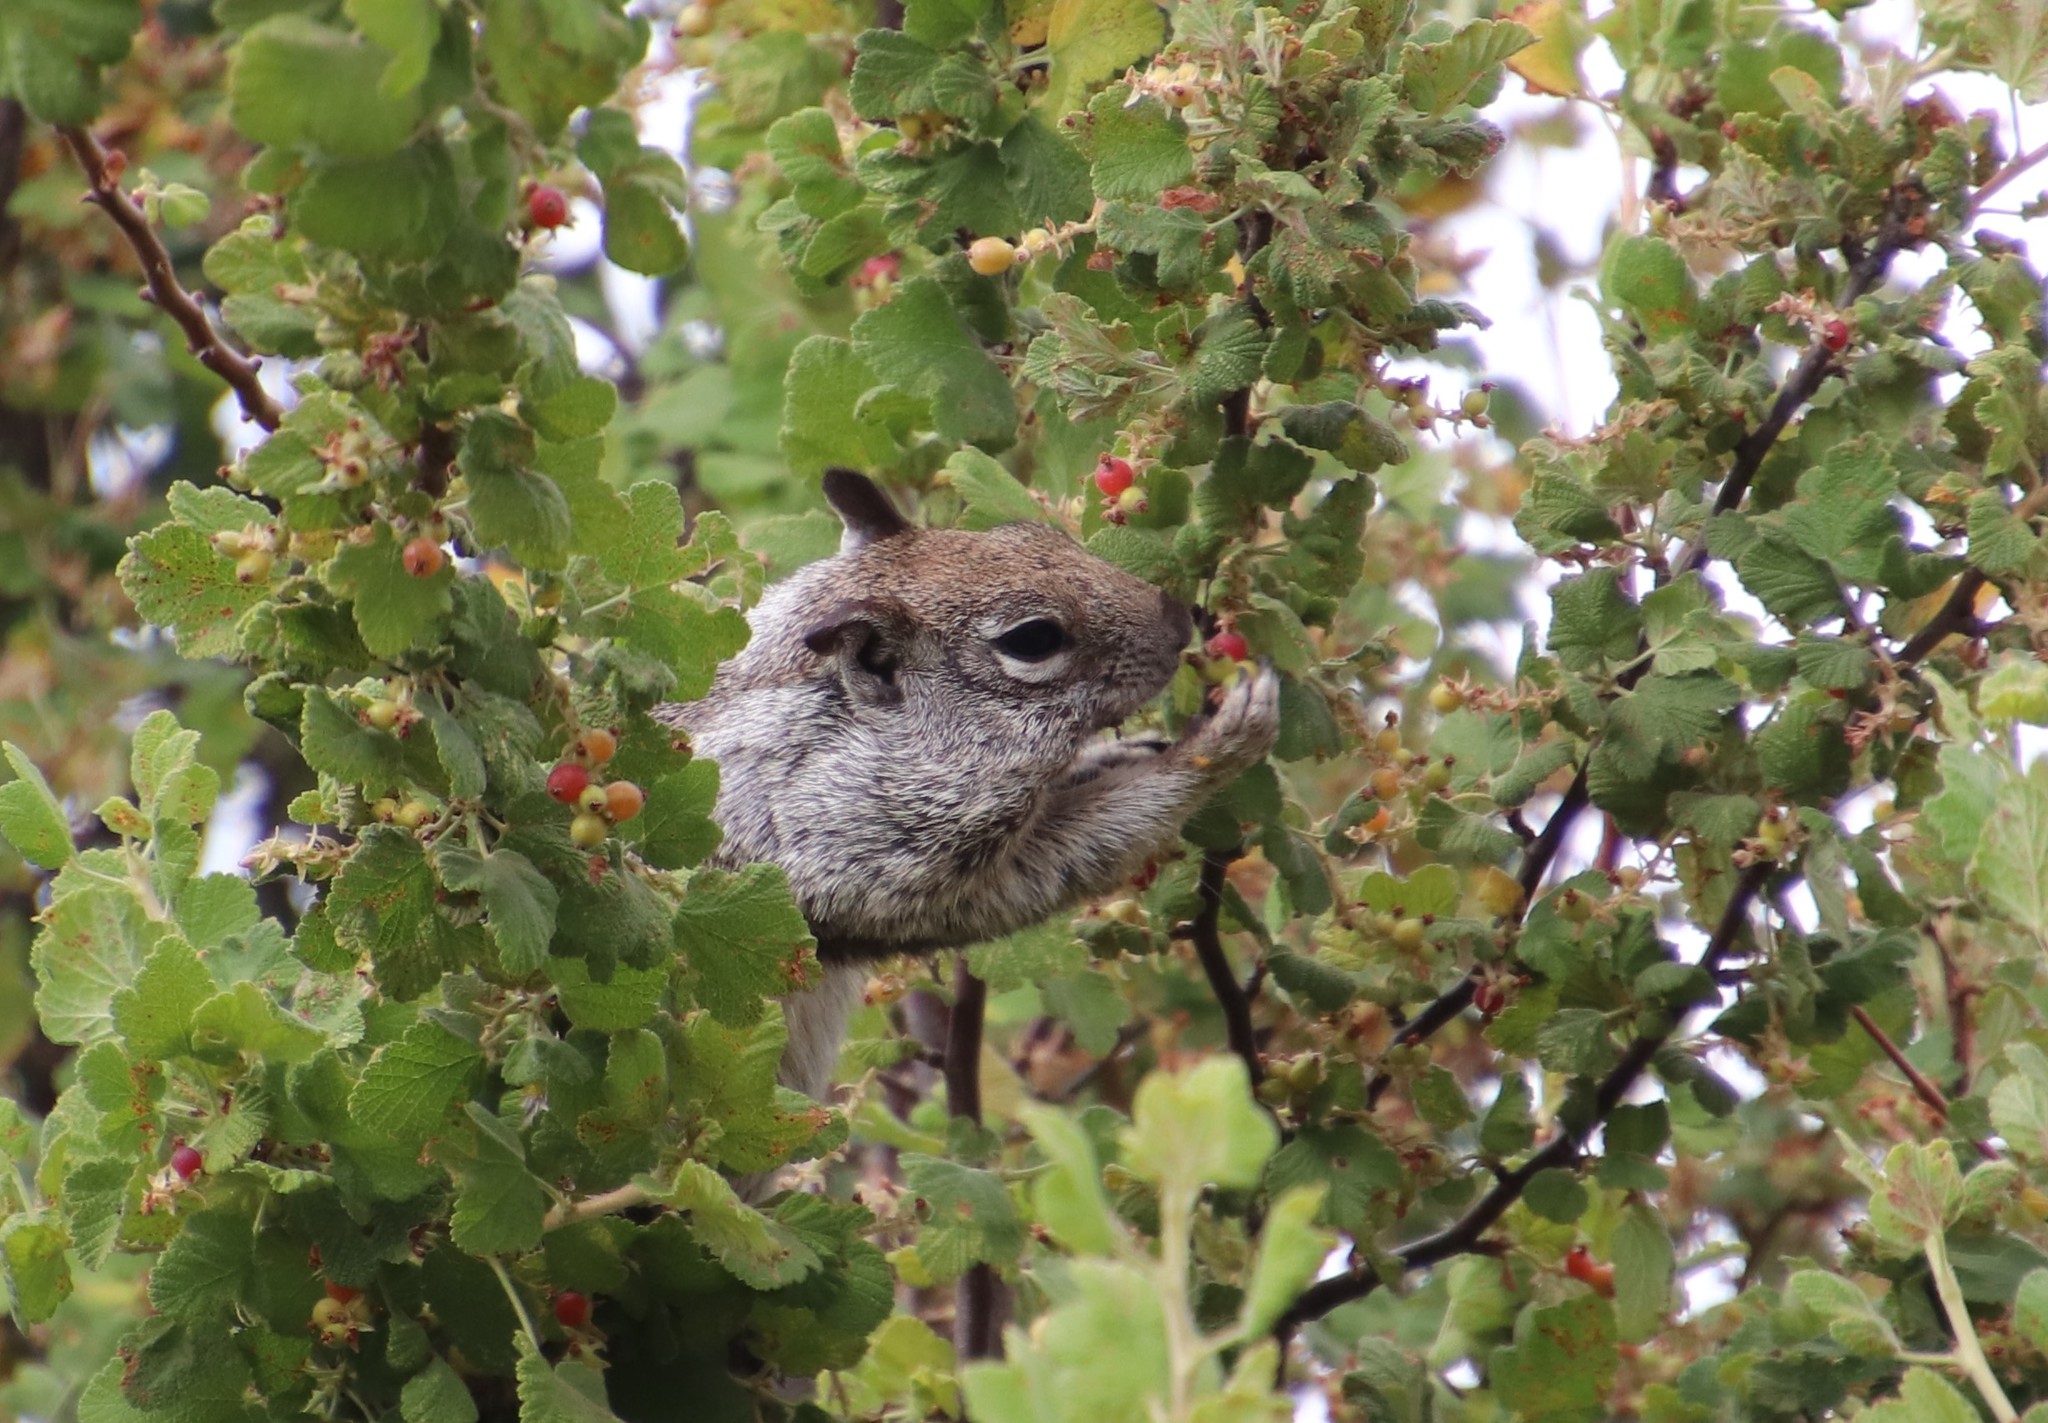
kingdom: Animalia
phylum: Chordata
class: Mammalia
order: Rodentia
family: Sciuridae
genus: Otospermophilus
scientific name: Otospermophilus beecheyi
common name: California ground squirrel
